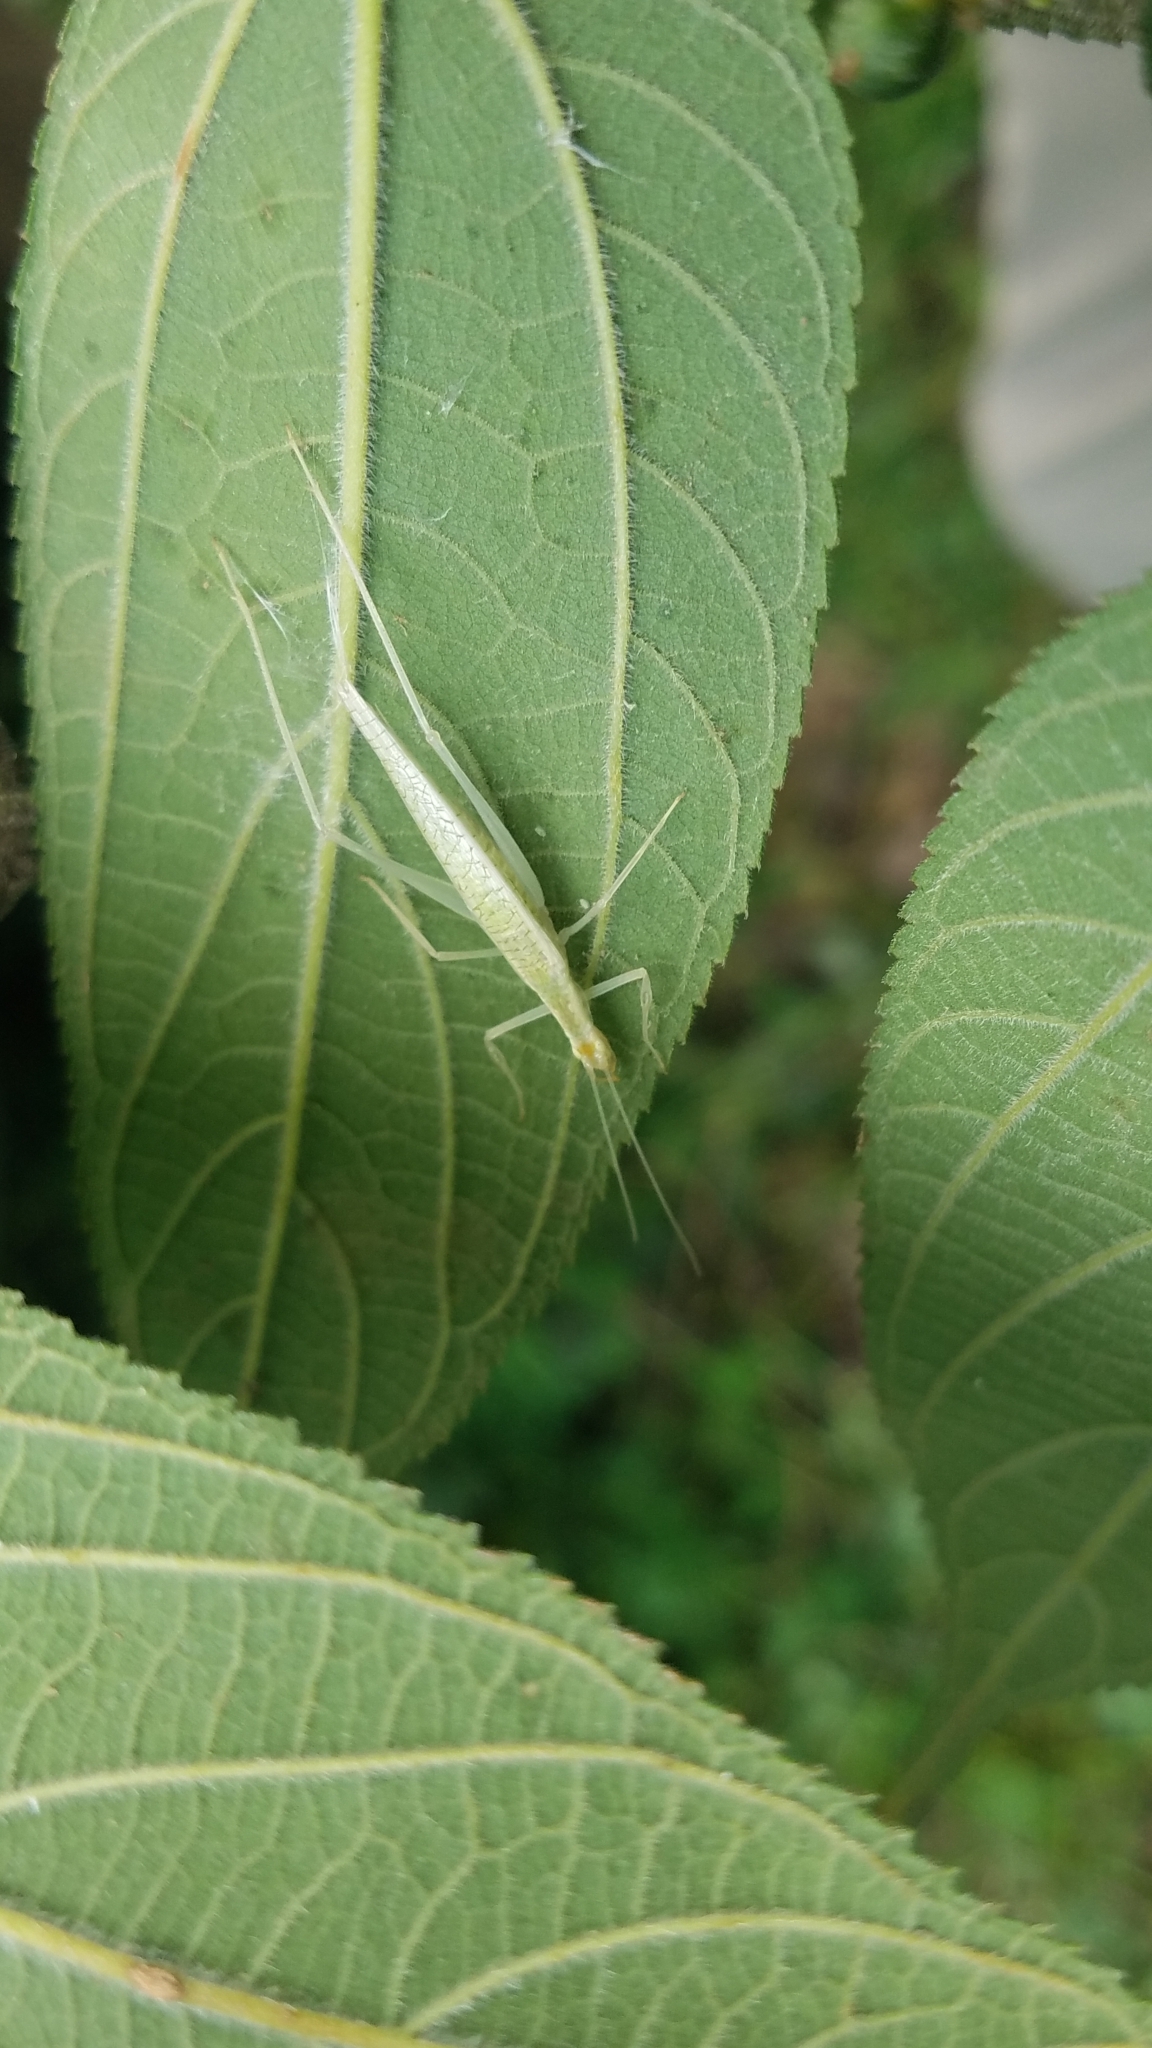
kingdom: Animalia
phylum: Arthropoda
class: Insecta
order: Orthoptera
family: Gryllidae
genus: Oecanthus
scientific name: Oecanthus leptogrammus
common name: Thin-lined tree cricket
